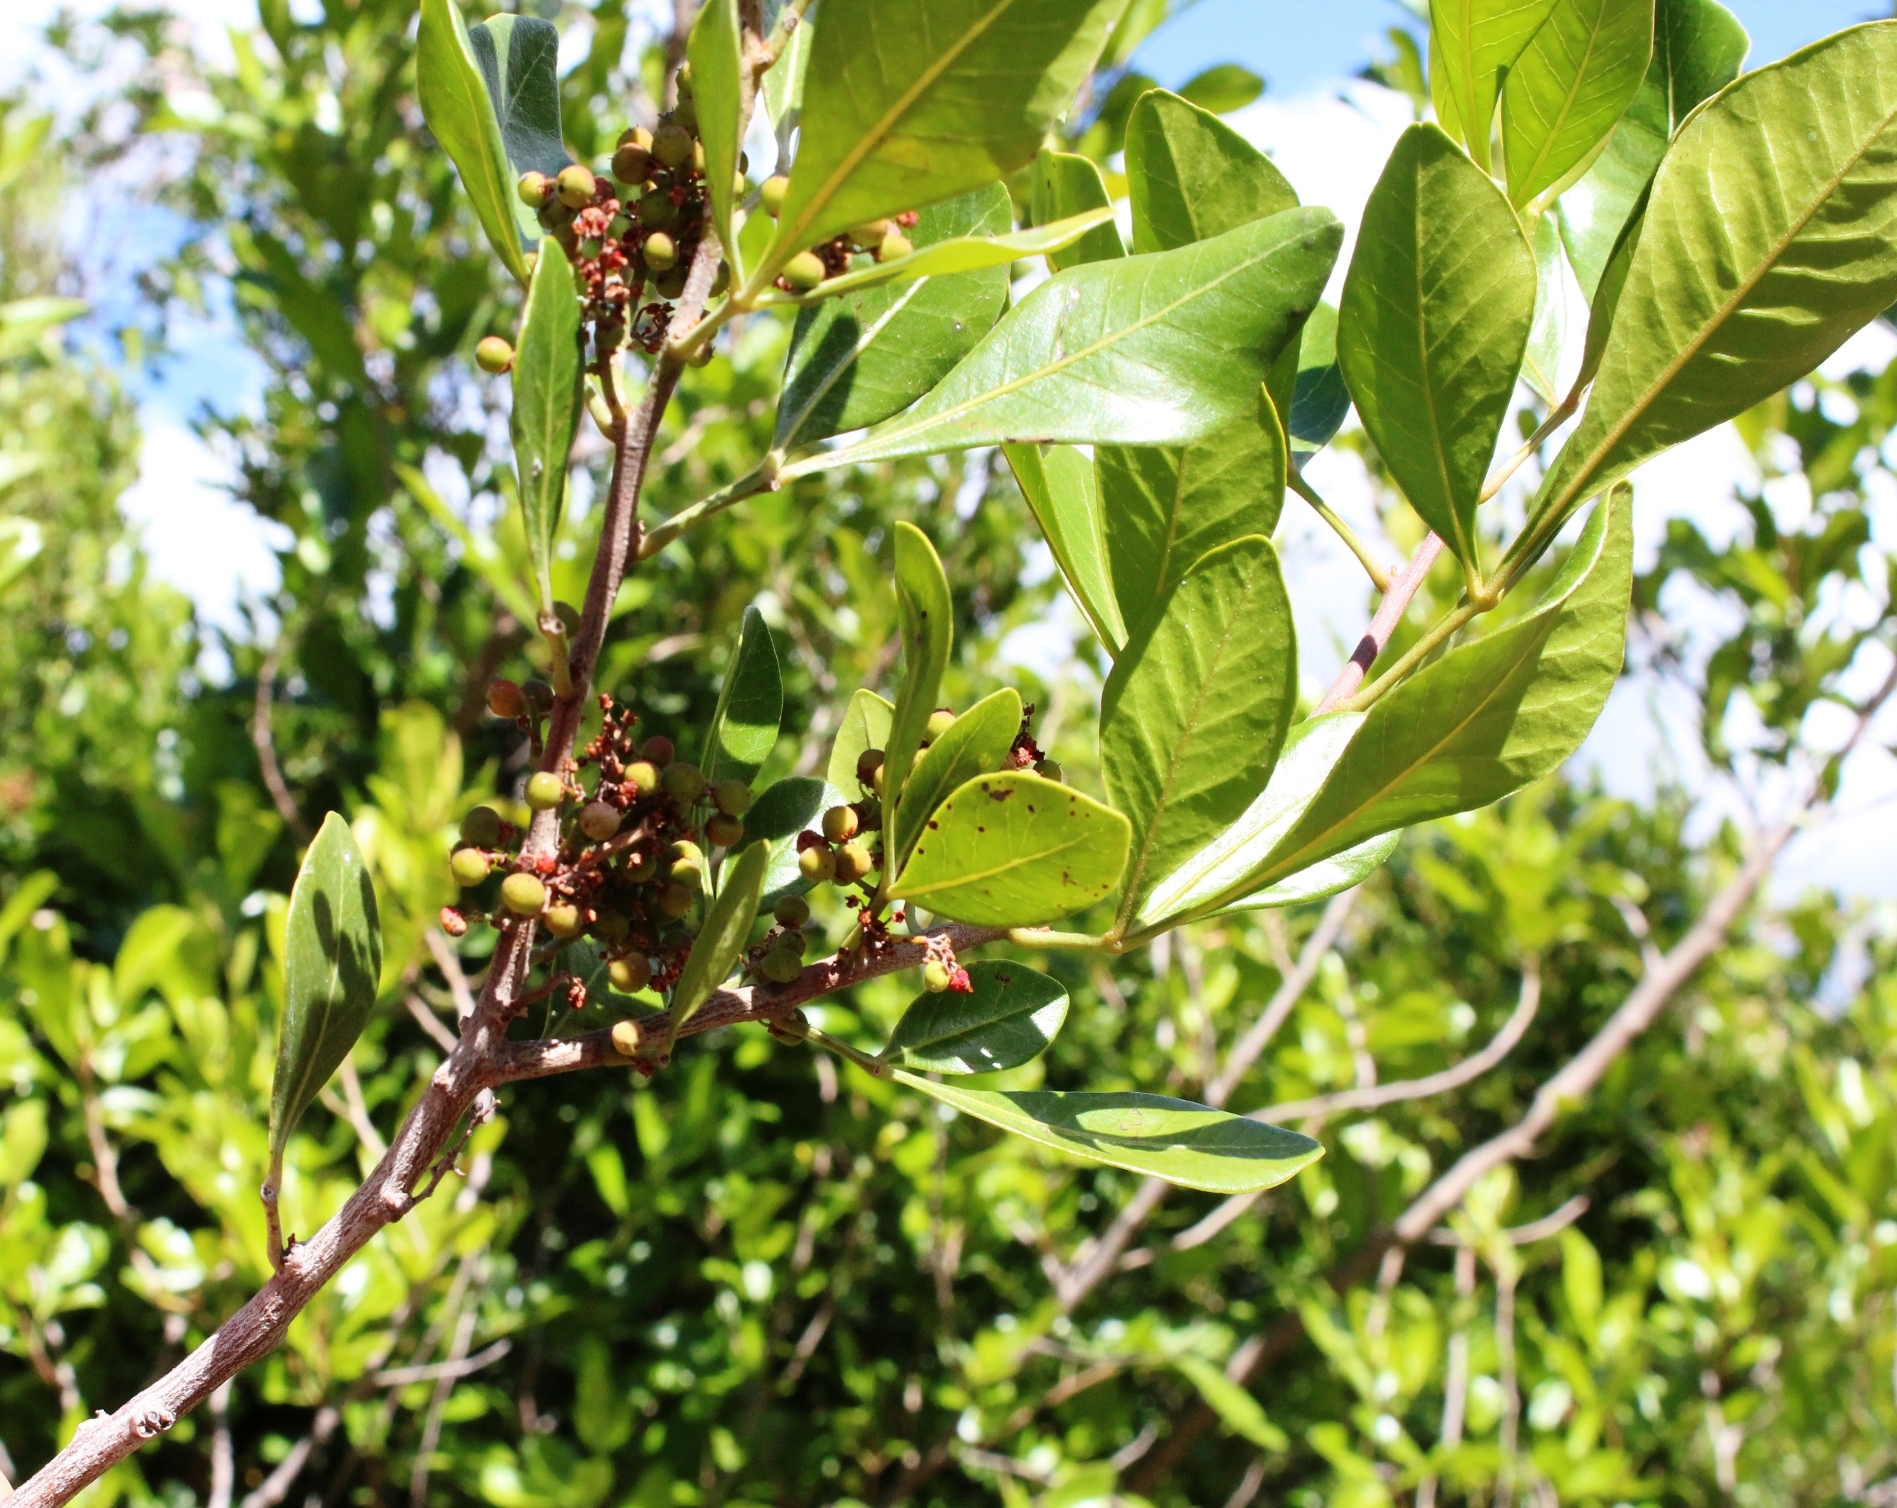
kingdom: Plantae
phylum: Tracheophyta
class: Magnoliopsida
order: Sapindales
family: Anacardiaceae
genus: Searsia
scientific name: Searsia lucida
